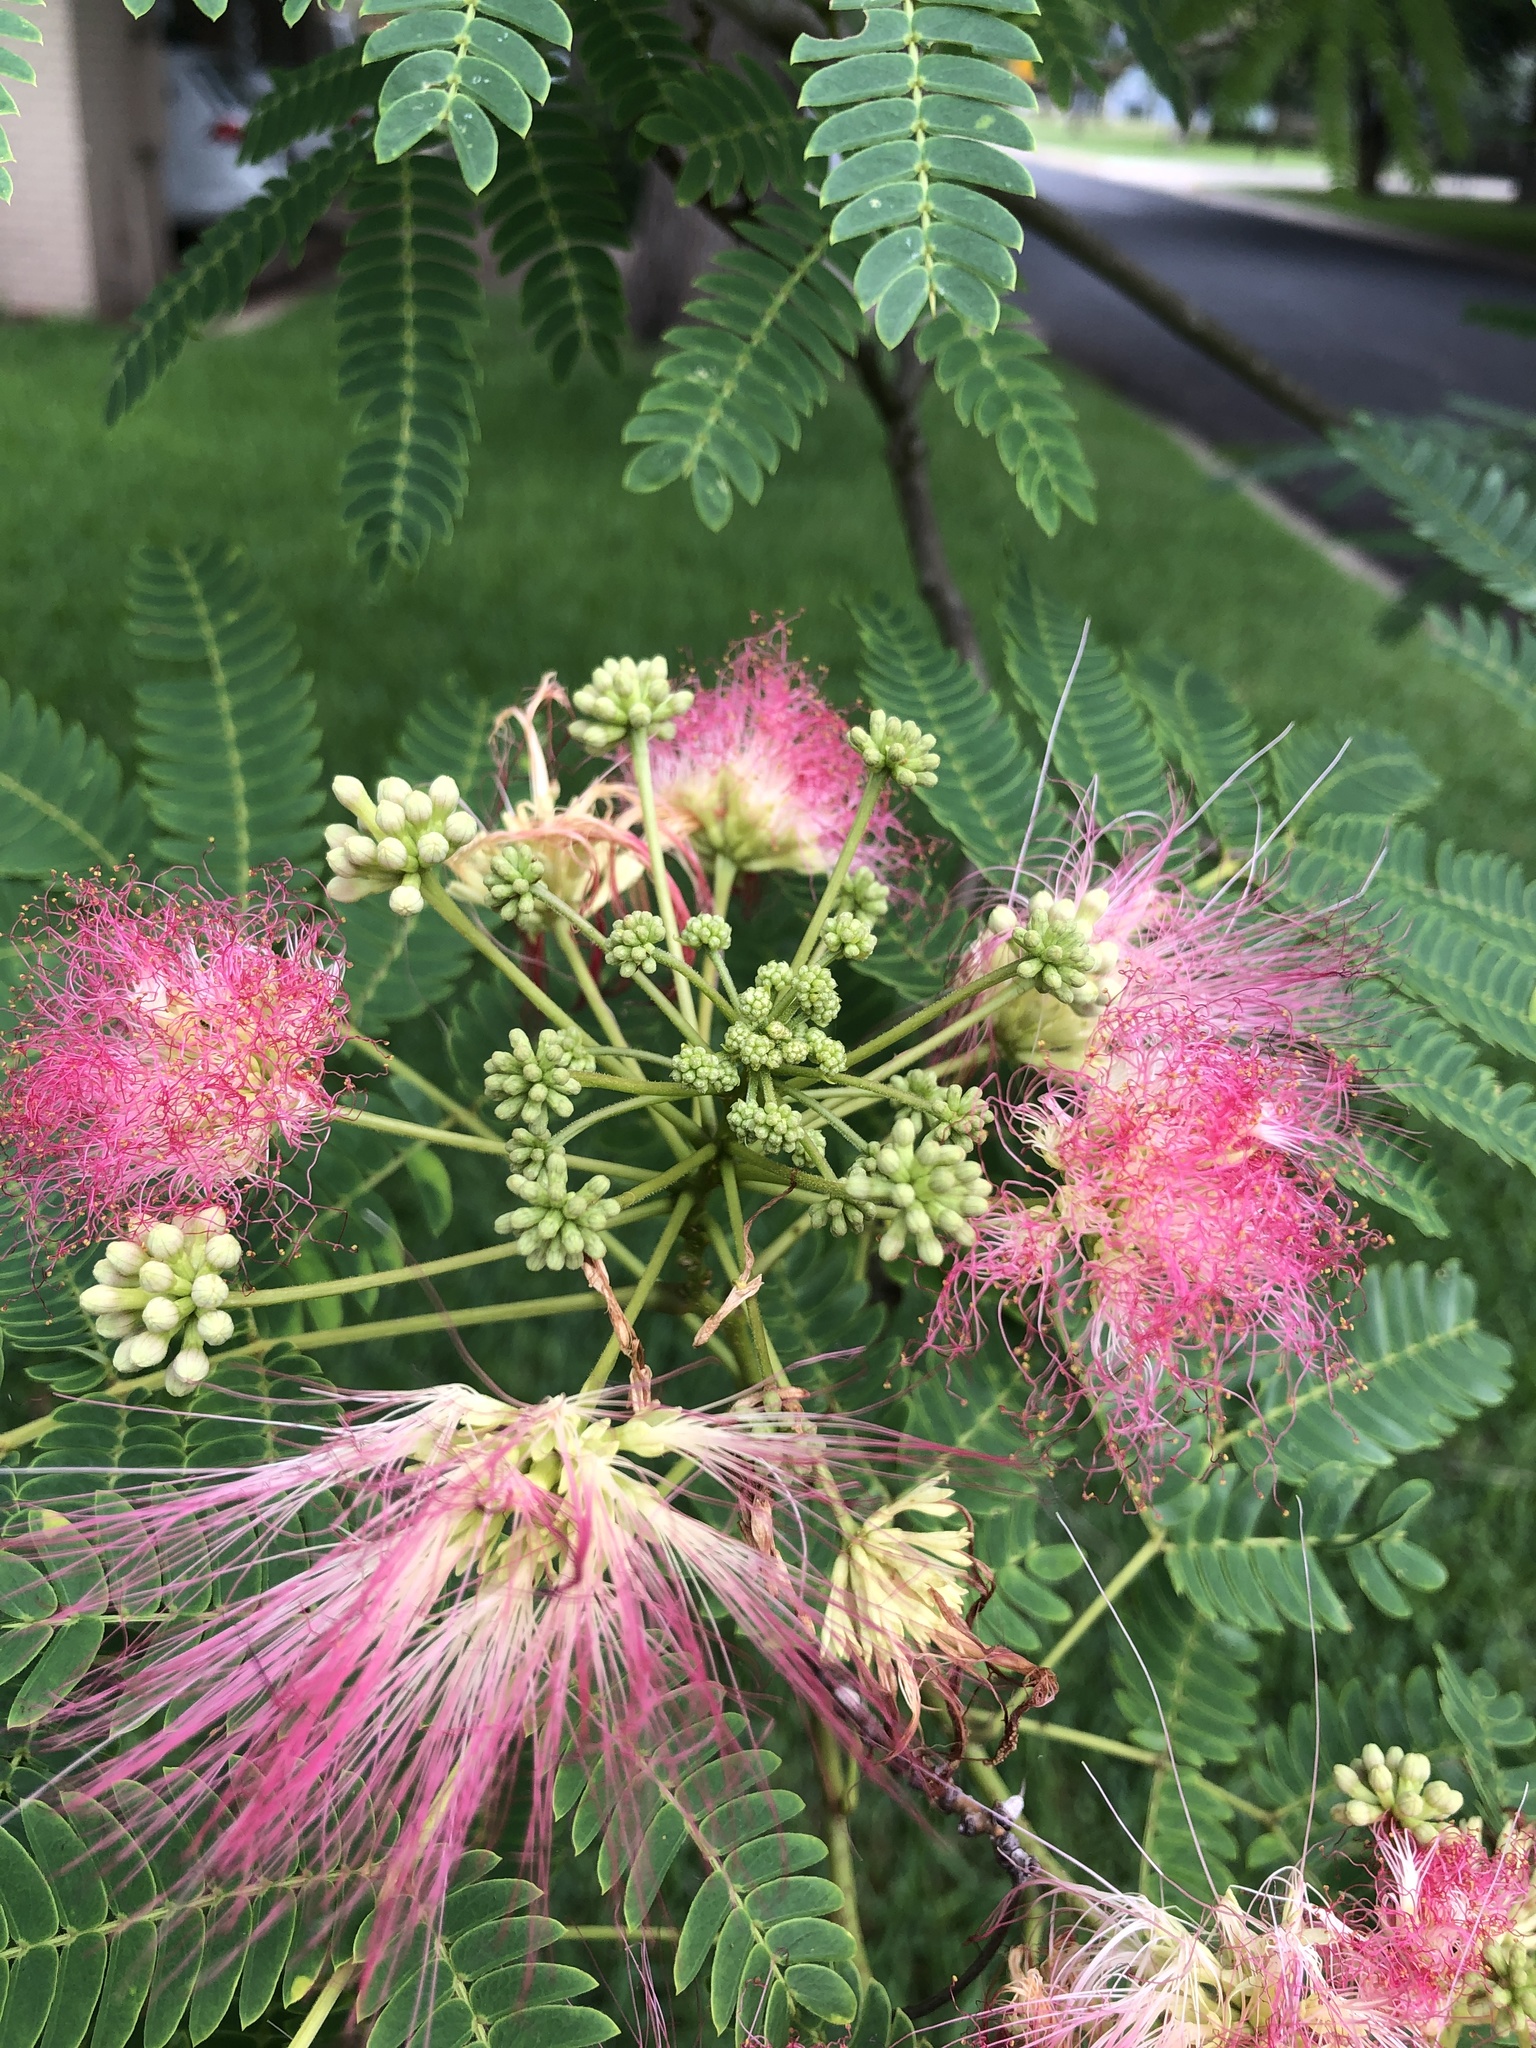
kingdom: Plantae
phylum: Tracheophyta
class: Magnoliopsida
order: Fabales
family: Fabaceae
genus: Albizia
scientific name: Albizia julibrissin
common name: Silktree
